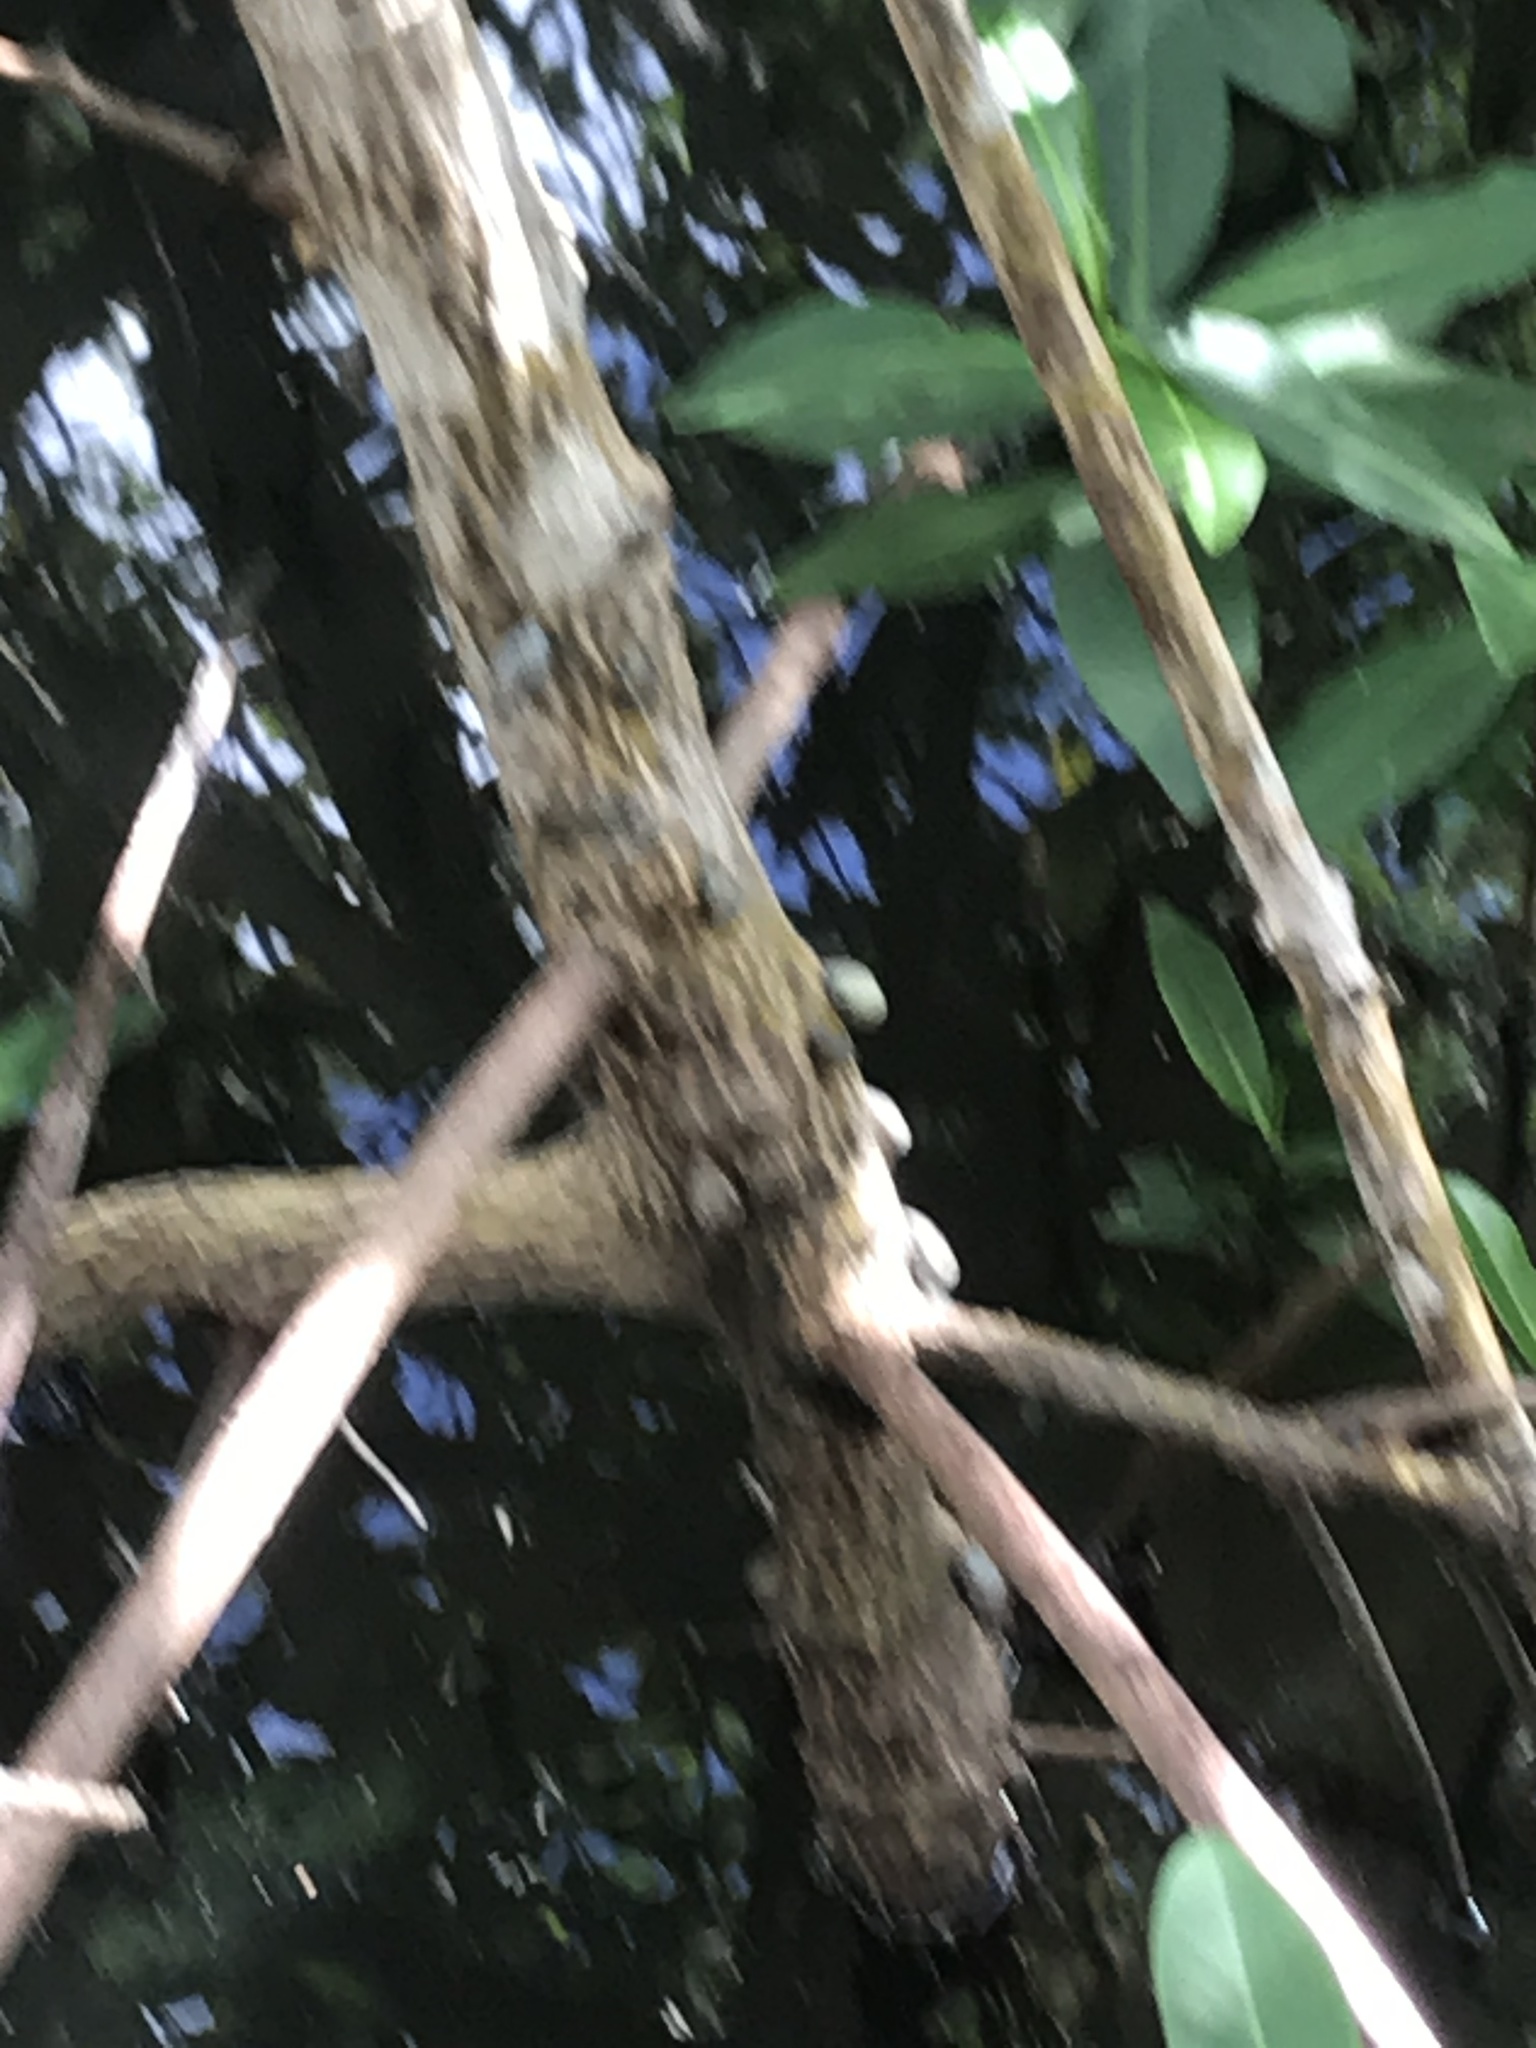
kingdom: Animalia
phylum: Mollusca
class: Gastropoda
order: Ellobiida
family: Ellobiidae
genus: Melampus
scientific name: Melampus coffea
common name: Coffee bean snail
